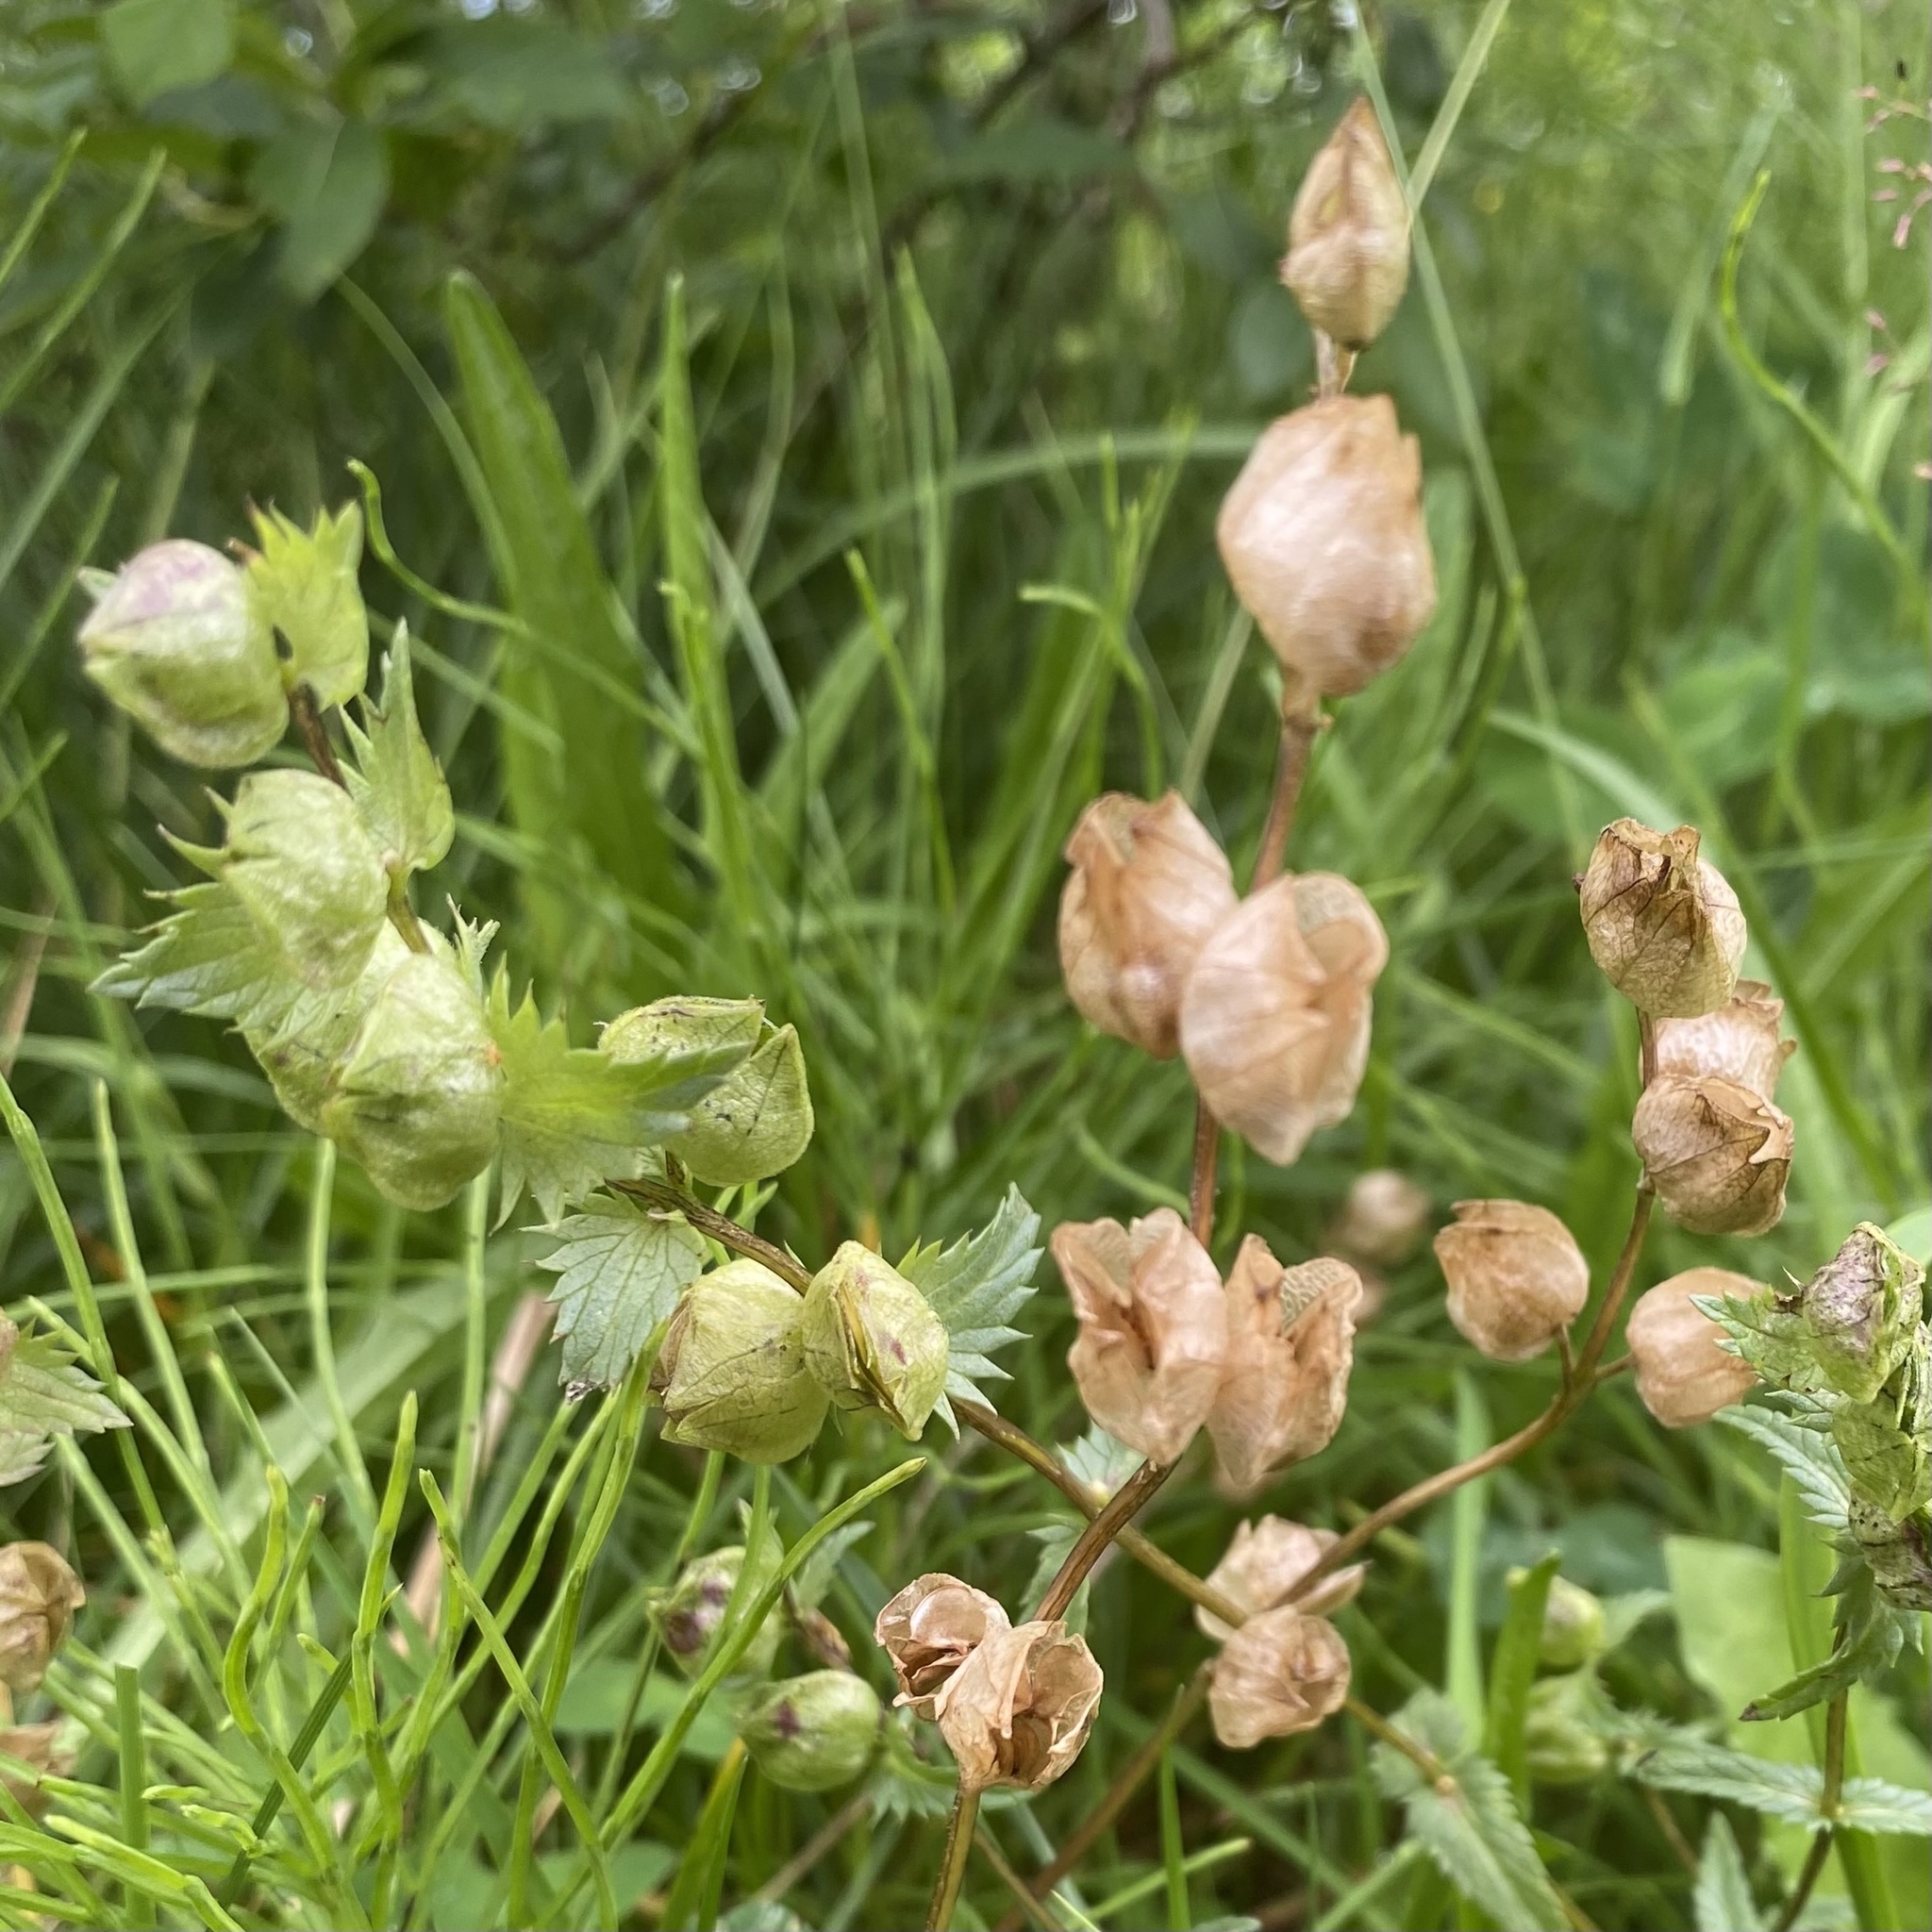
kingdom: Plantae
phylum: Tracheophyta
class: Magnoliopsida
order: Lamiales
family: Orobanchaceae
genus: Rhinanthus
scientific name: Rhinanthus minor
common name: Yellow-rattle
